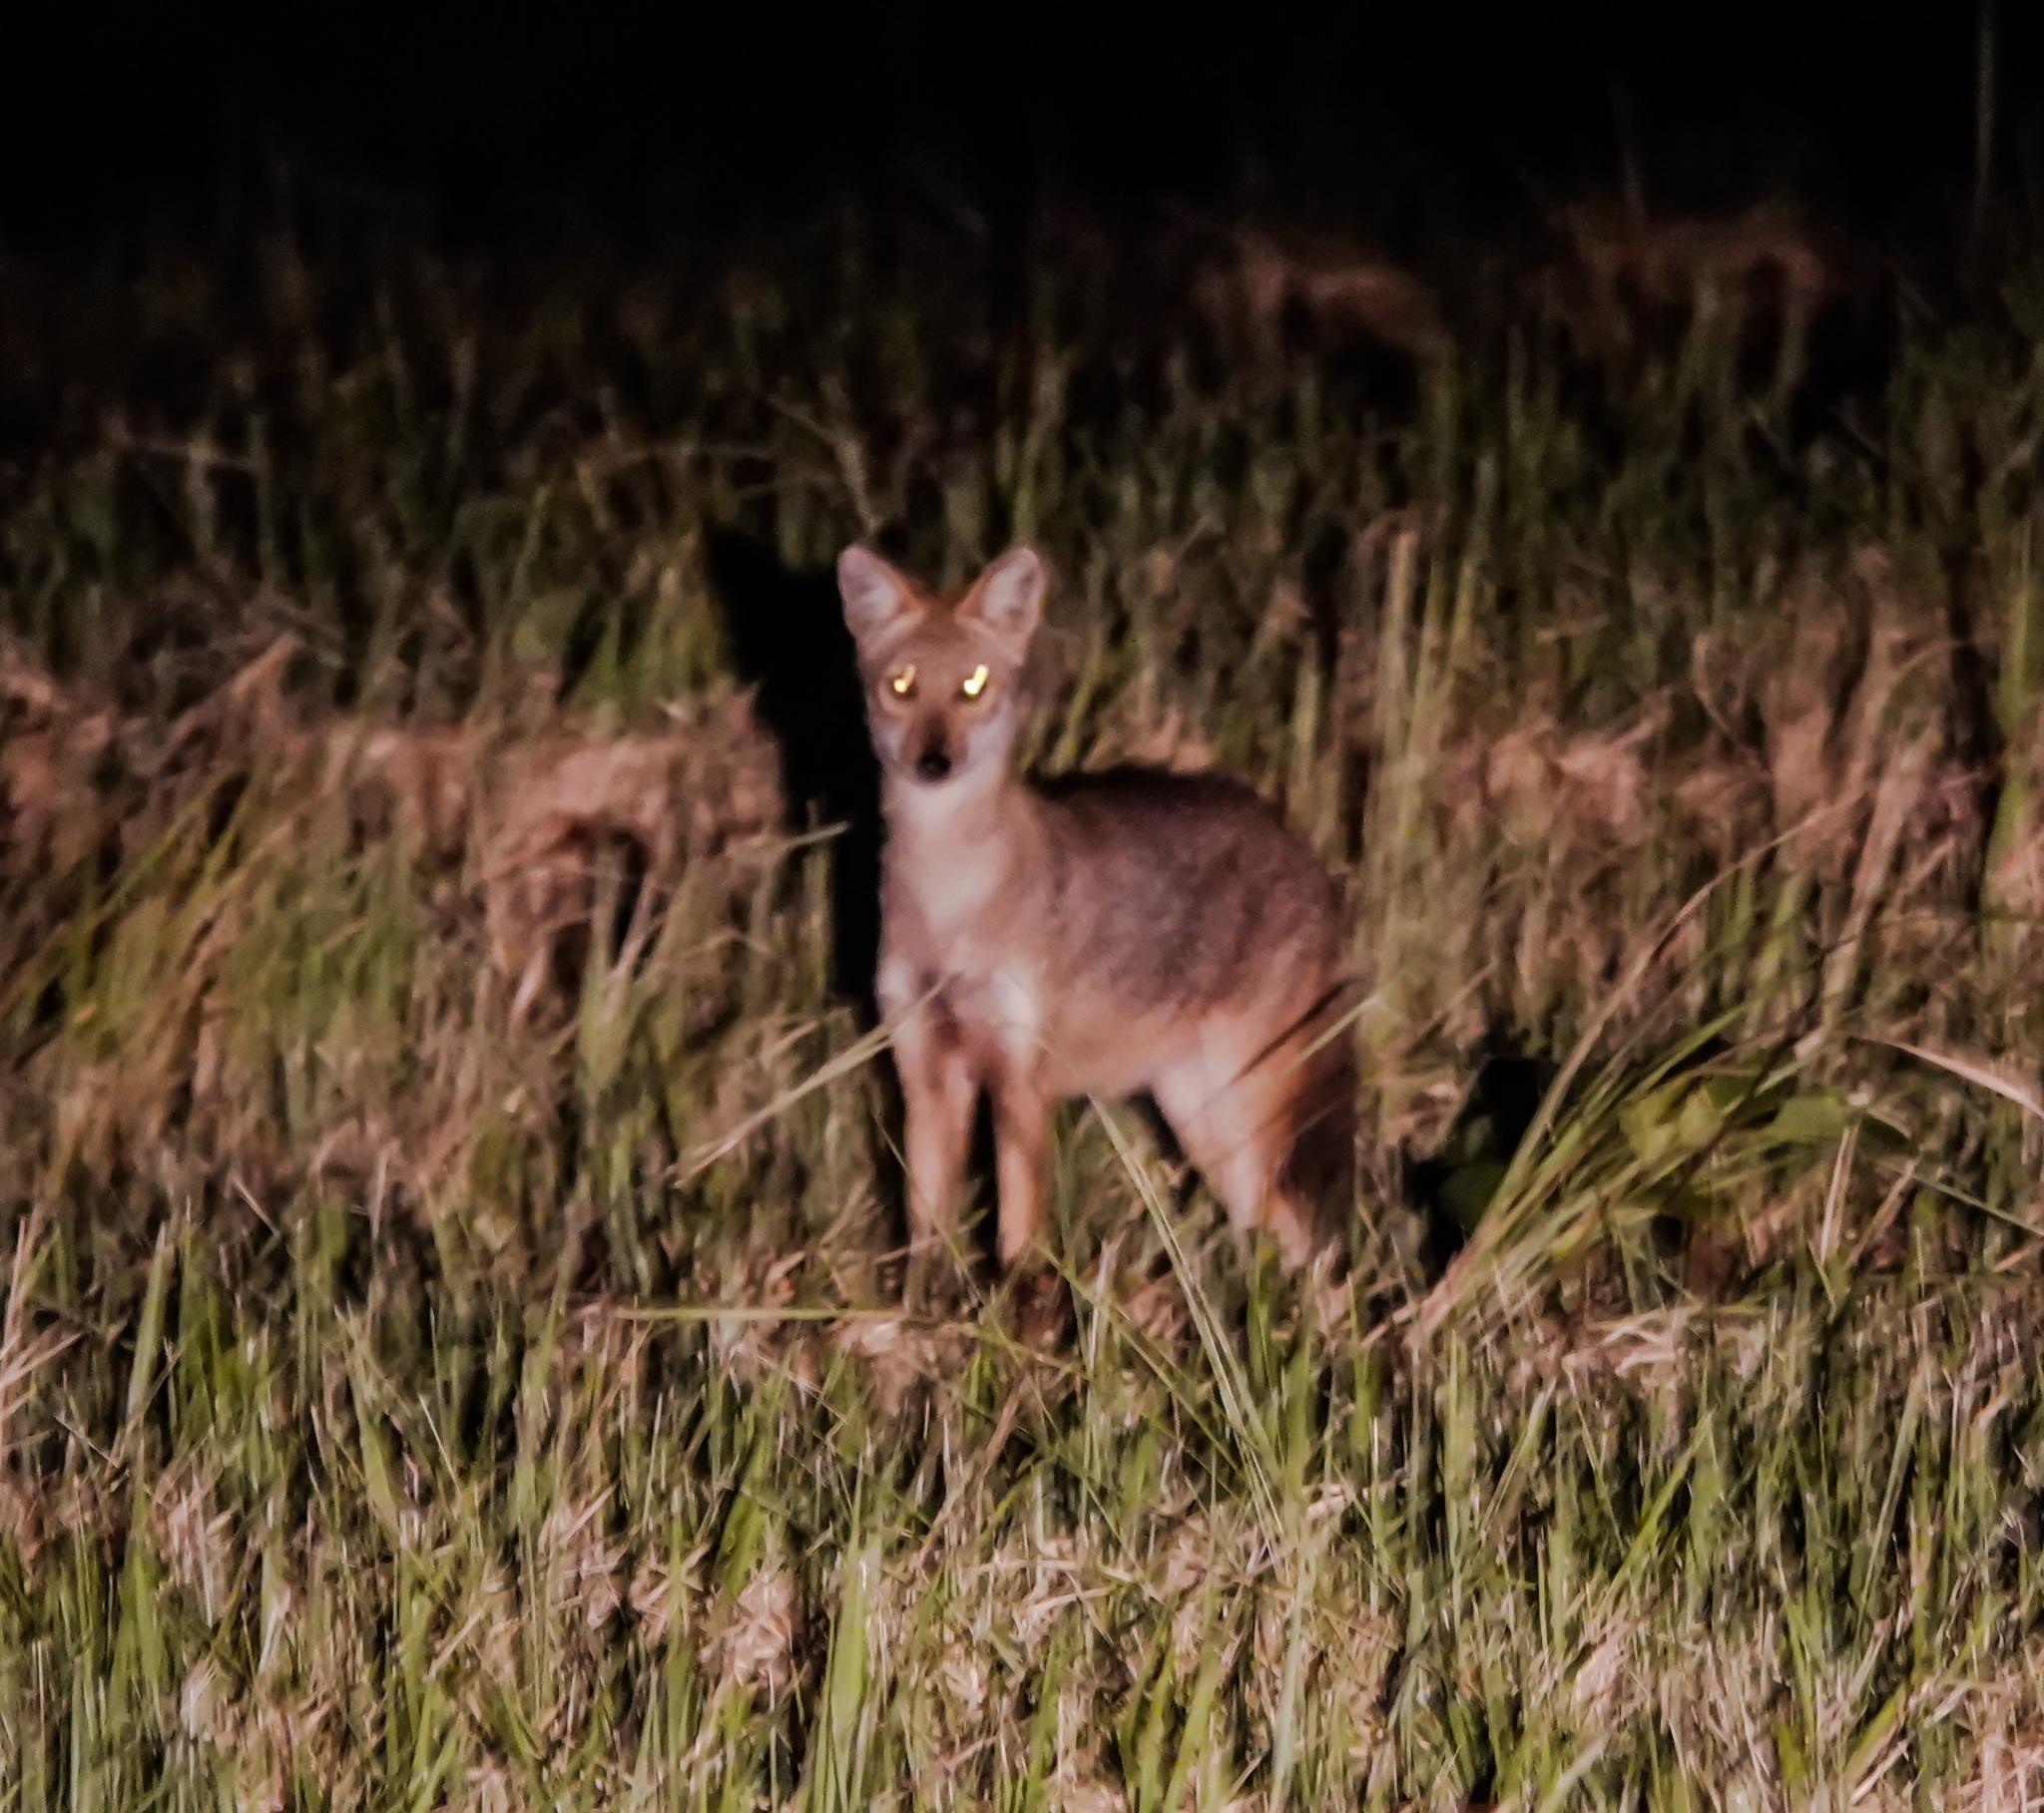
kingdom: Animalia
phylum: Chordata
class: Mammalia
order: Carnivora
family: Canidae
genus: Canis
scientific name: Canis aureus
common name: Golden jackal
